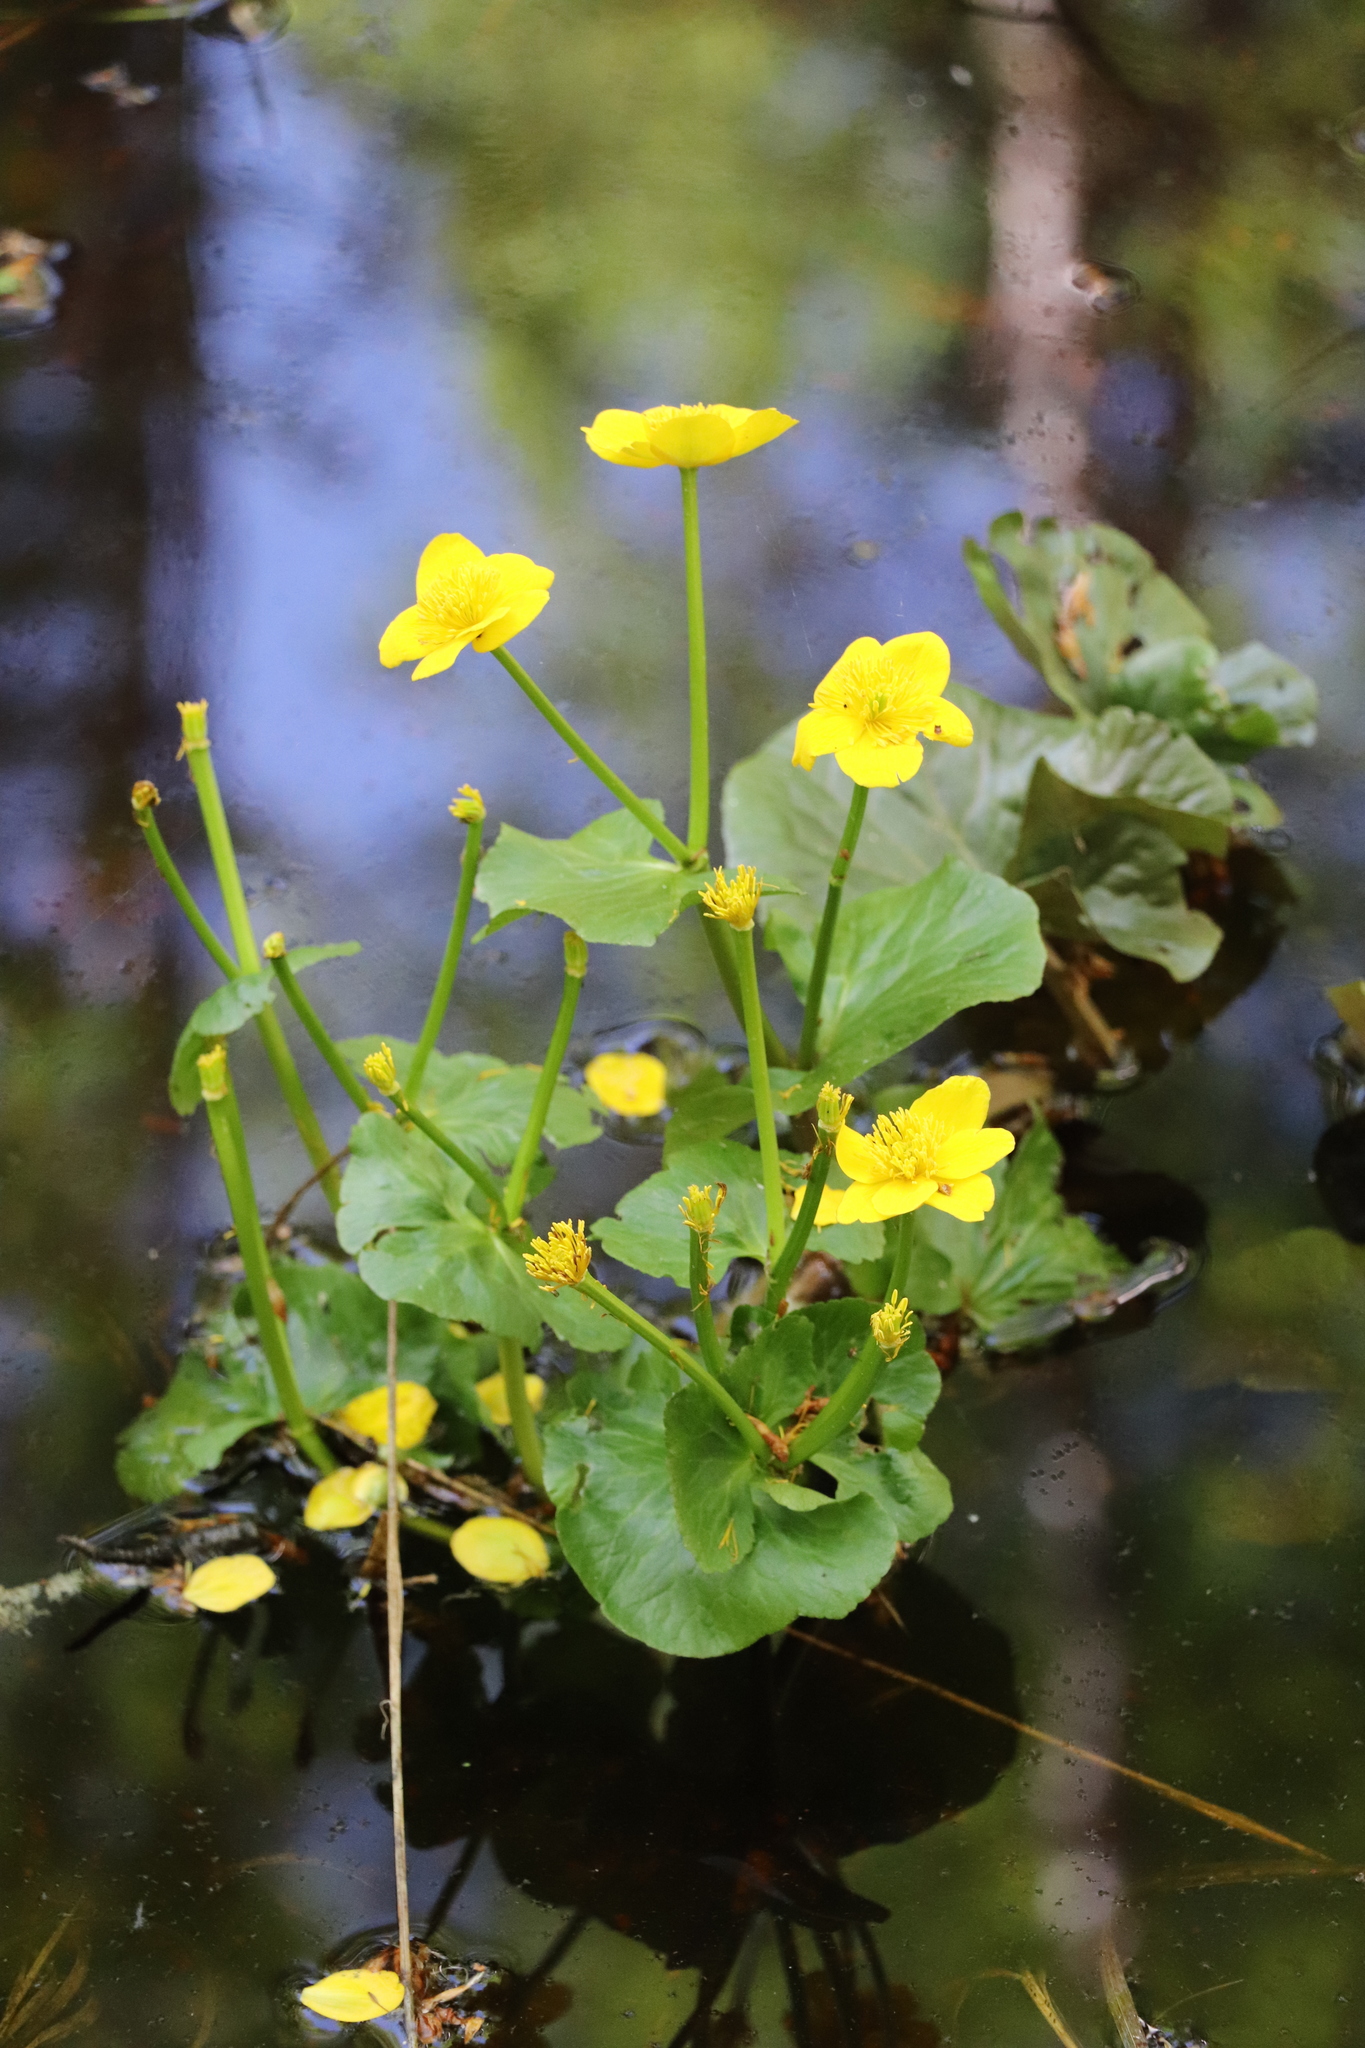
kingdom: Plantae
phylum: Tracheophyta
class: Magnoliopsida
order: Ranunculales
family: Ranunculaceae
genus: Caltha
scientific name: Caltha palustris
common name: Marsh marigold
